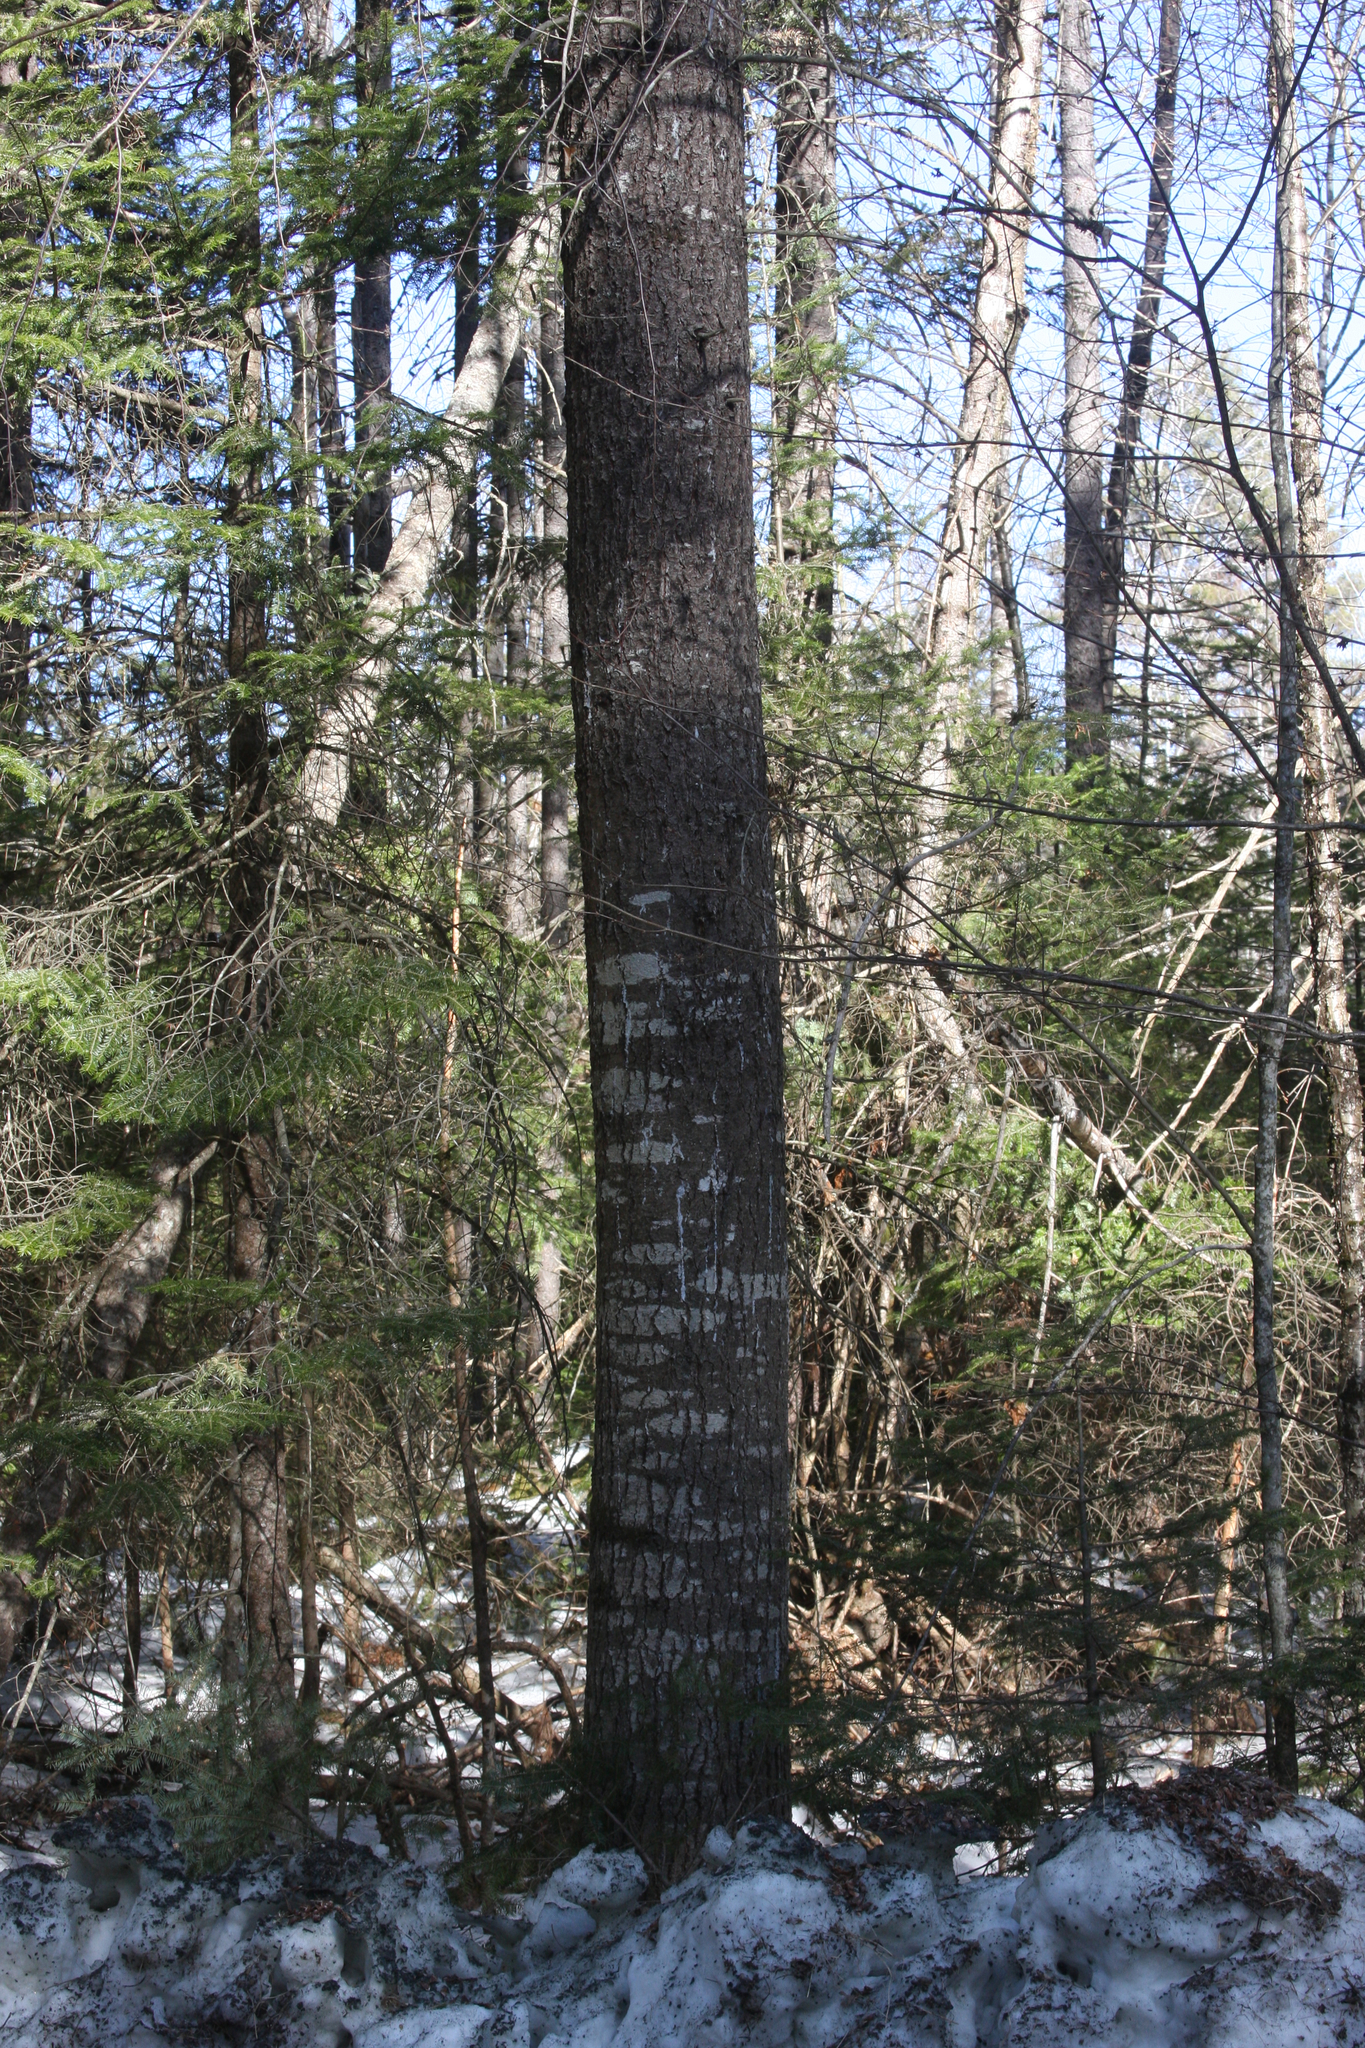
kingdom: Plantae
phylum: Tracheophyta
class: Pinopsida
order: Pinales
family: Pinaceae
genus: Pinus
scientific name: Pinus strobus
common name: Weymouth pine
